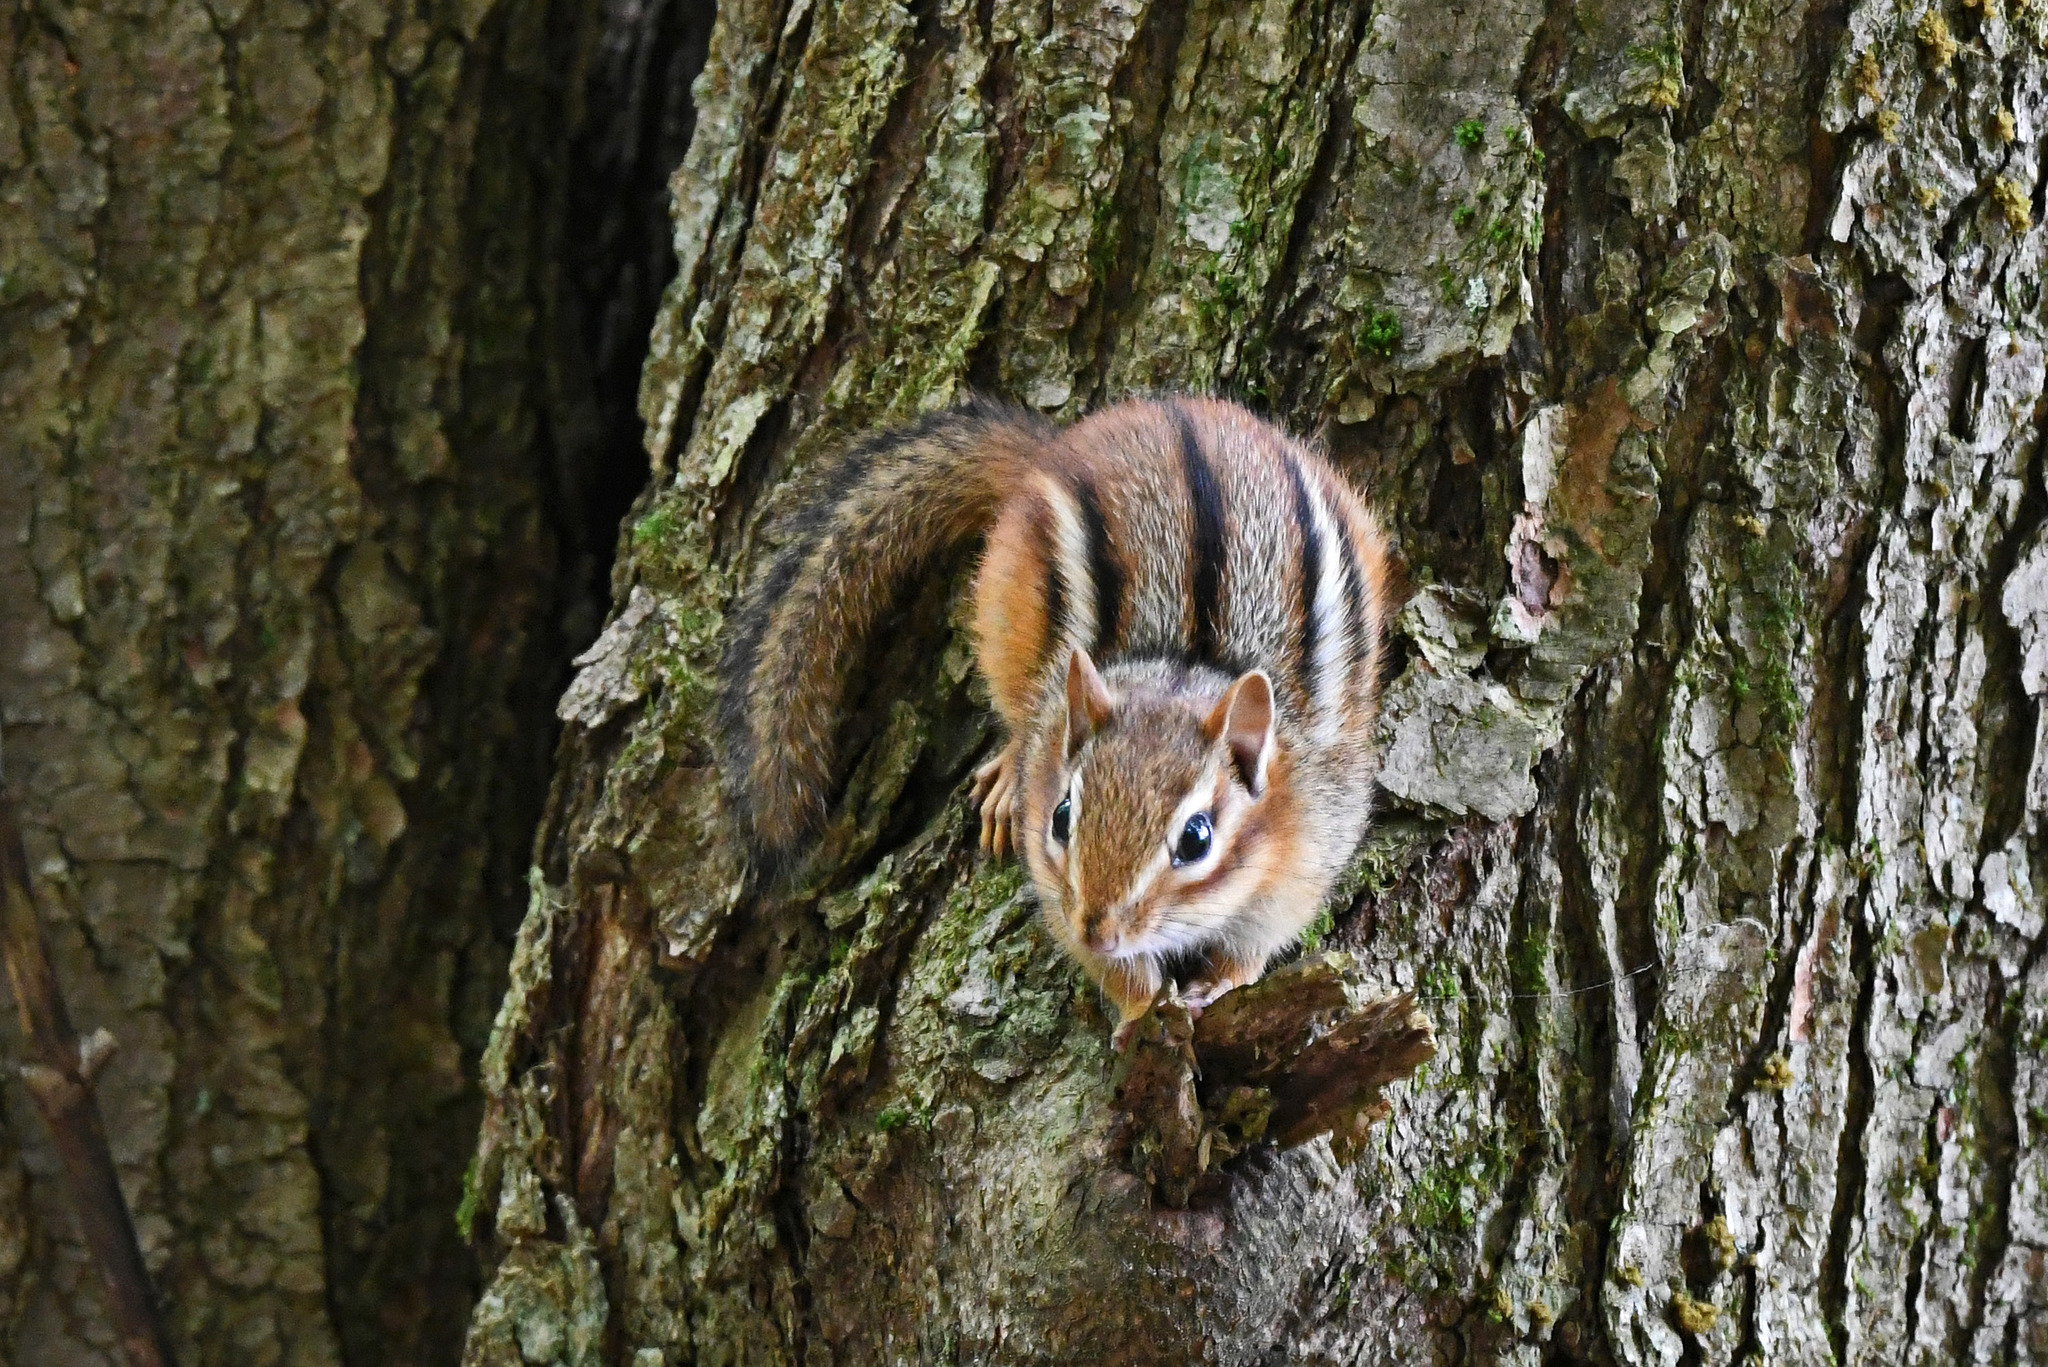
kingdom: Animalia
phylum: Chordata
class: Mammalia
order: Rodentia
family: Sciuridae
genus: Tamias
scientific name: Tamias striatus
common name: Eastern chipmunk
